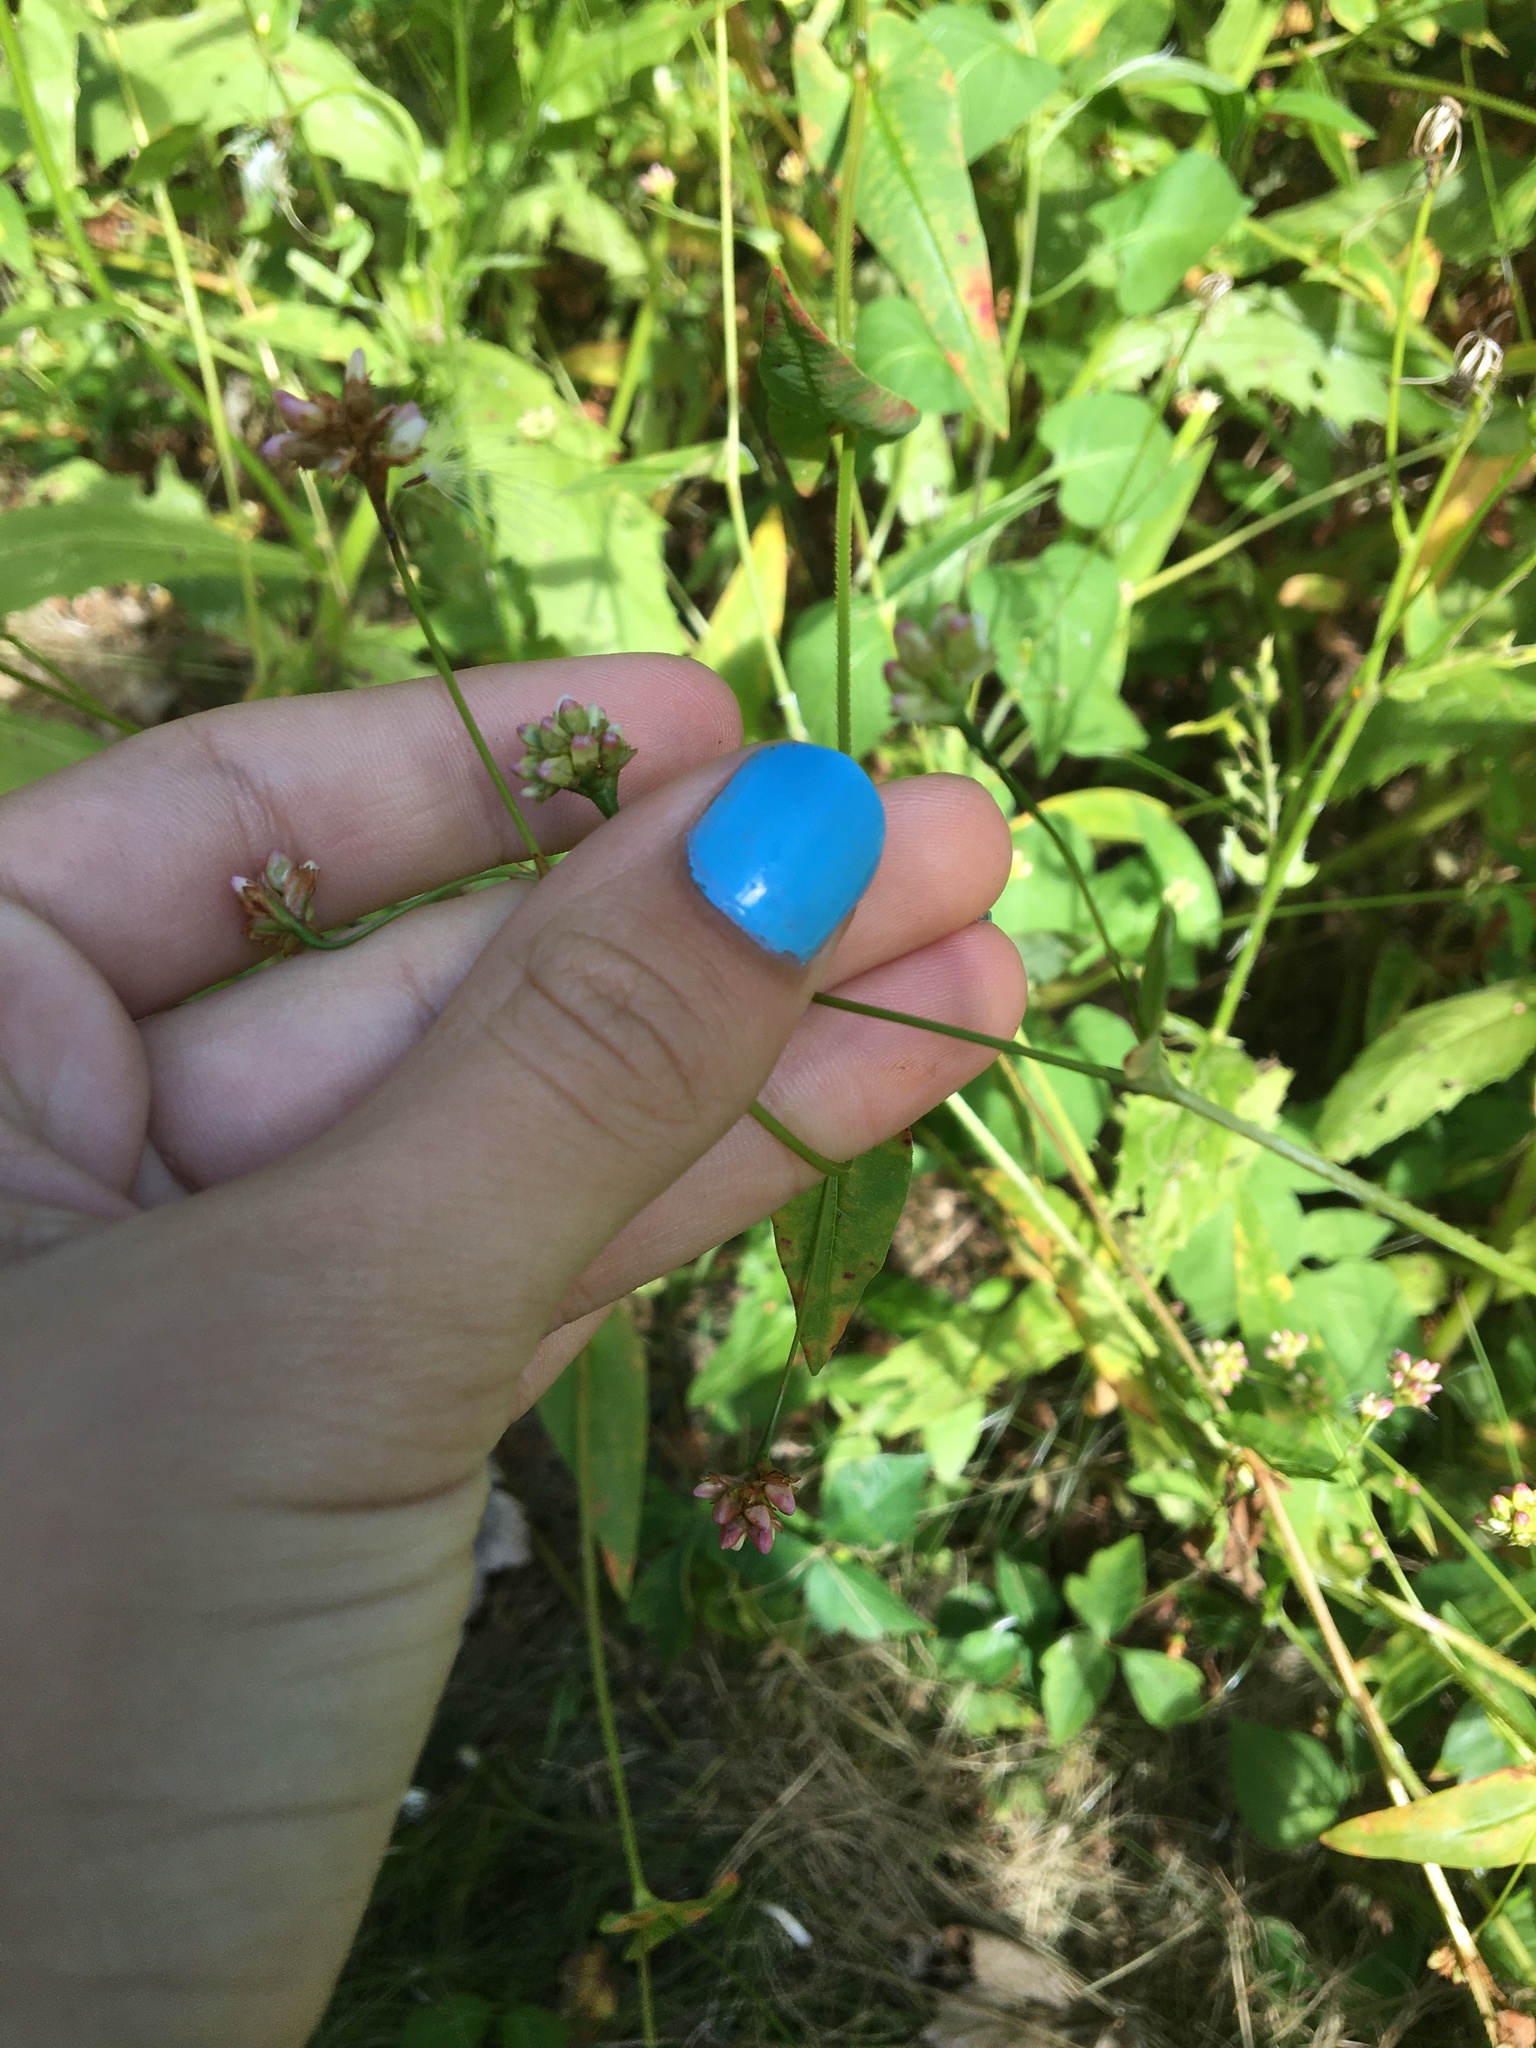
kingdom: Plantae
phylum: Tracheophyta
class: Magnoliopsida
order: Caryophyllales
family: Polygonaceae
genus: Persicaria
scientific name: Persicaria sagittata
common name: American tearthumb
